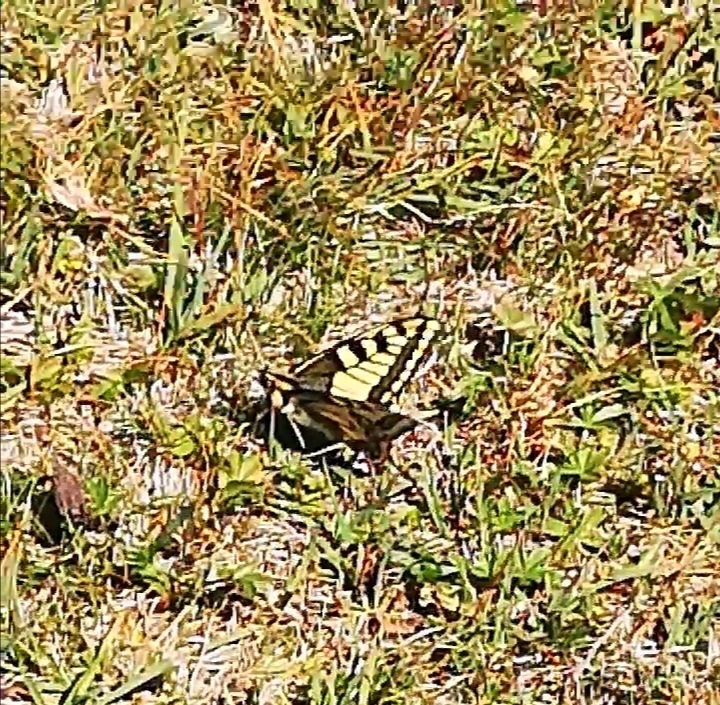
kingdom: Animalia
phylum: Arthropoda
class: Insecta
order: Lepidoptera
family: Papilionidae
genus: Papilio
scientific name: Papilio machaon
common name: Swallowtail
